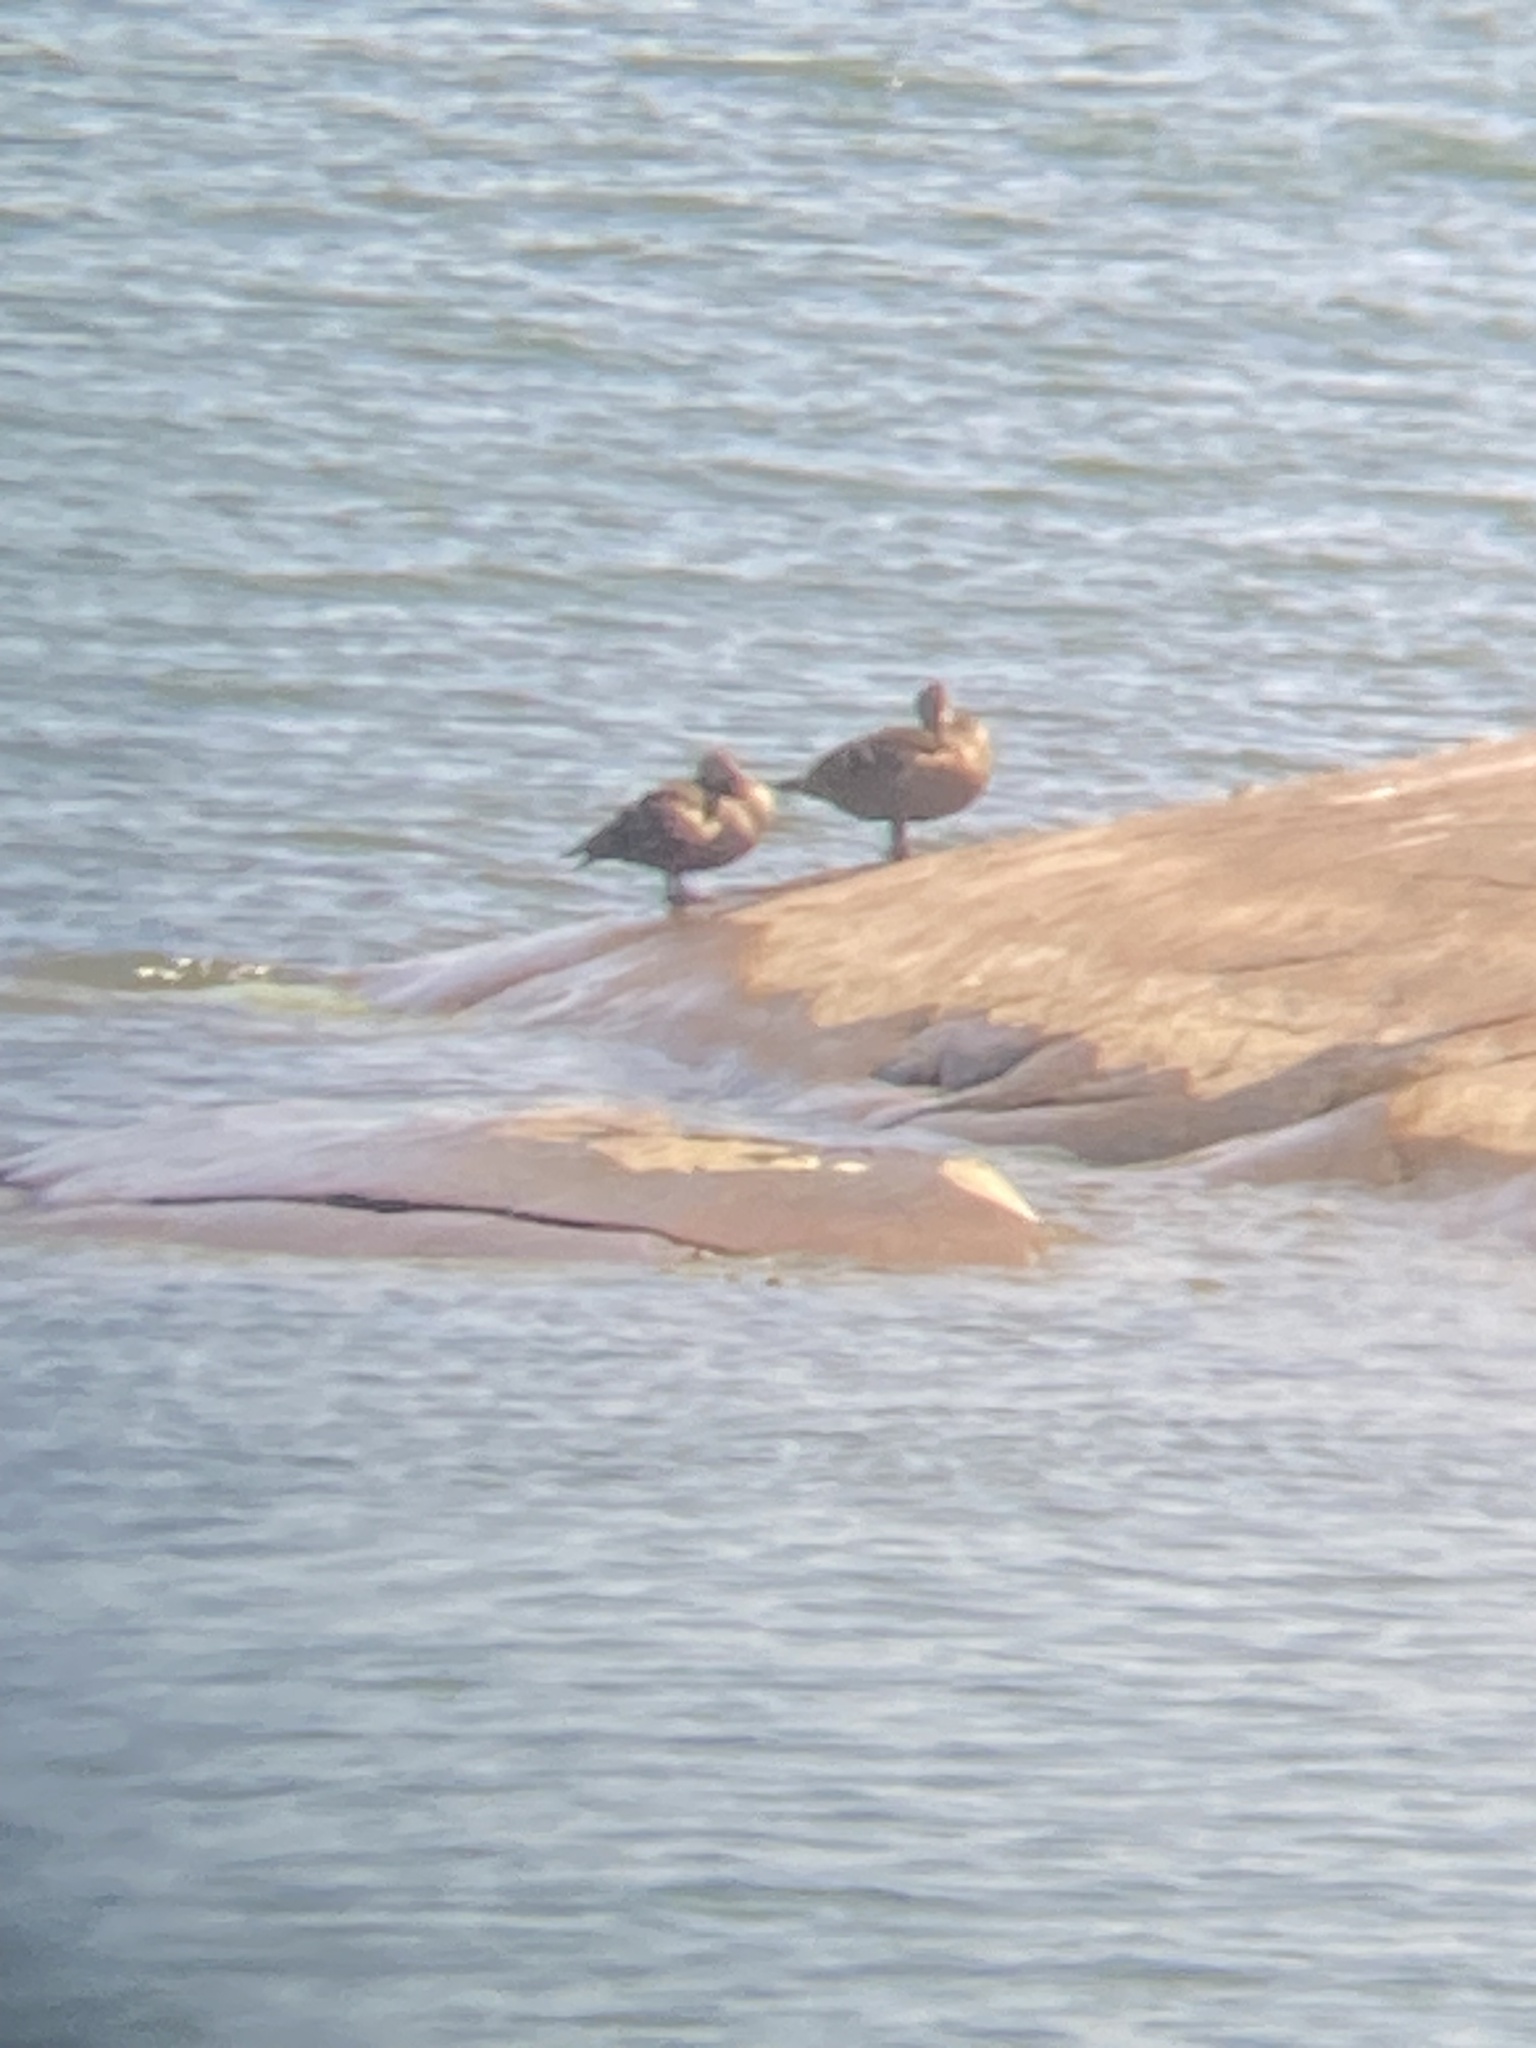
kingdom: Animalia
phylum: Chordata
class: Aves
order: Anseriformes
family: Anatidae
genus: Somateria
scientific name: Somateria mollissima
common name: Common eider
